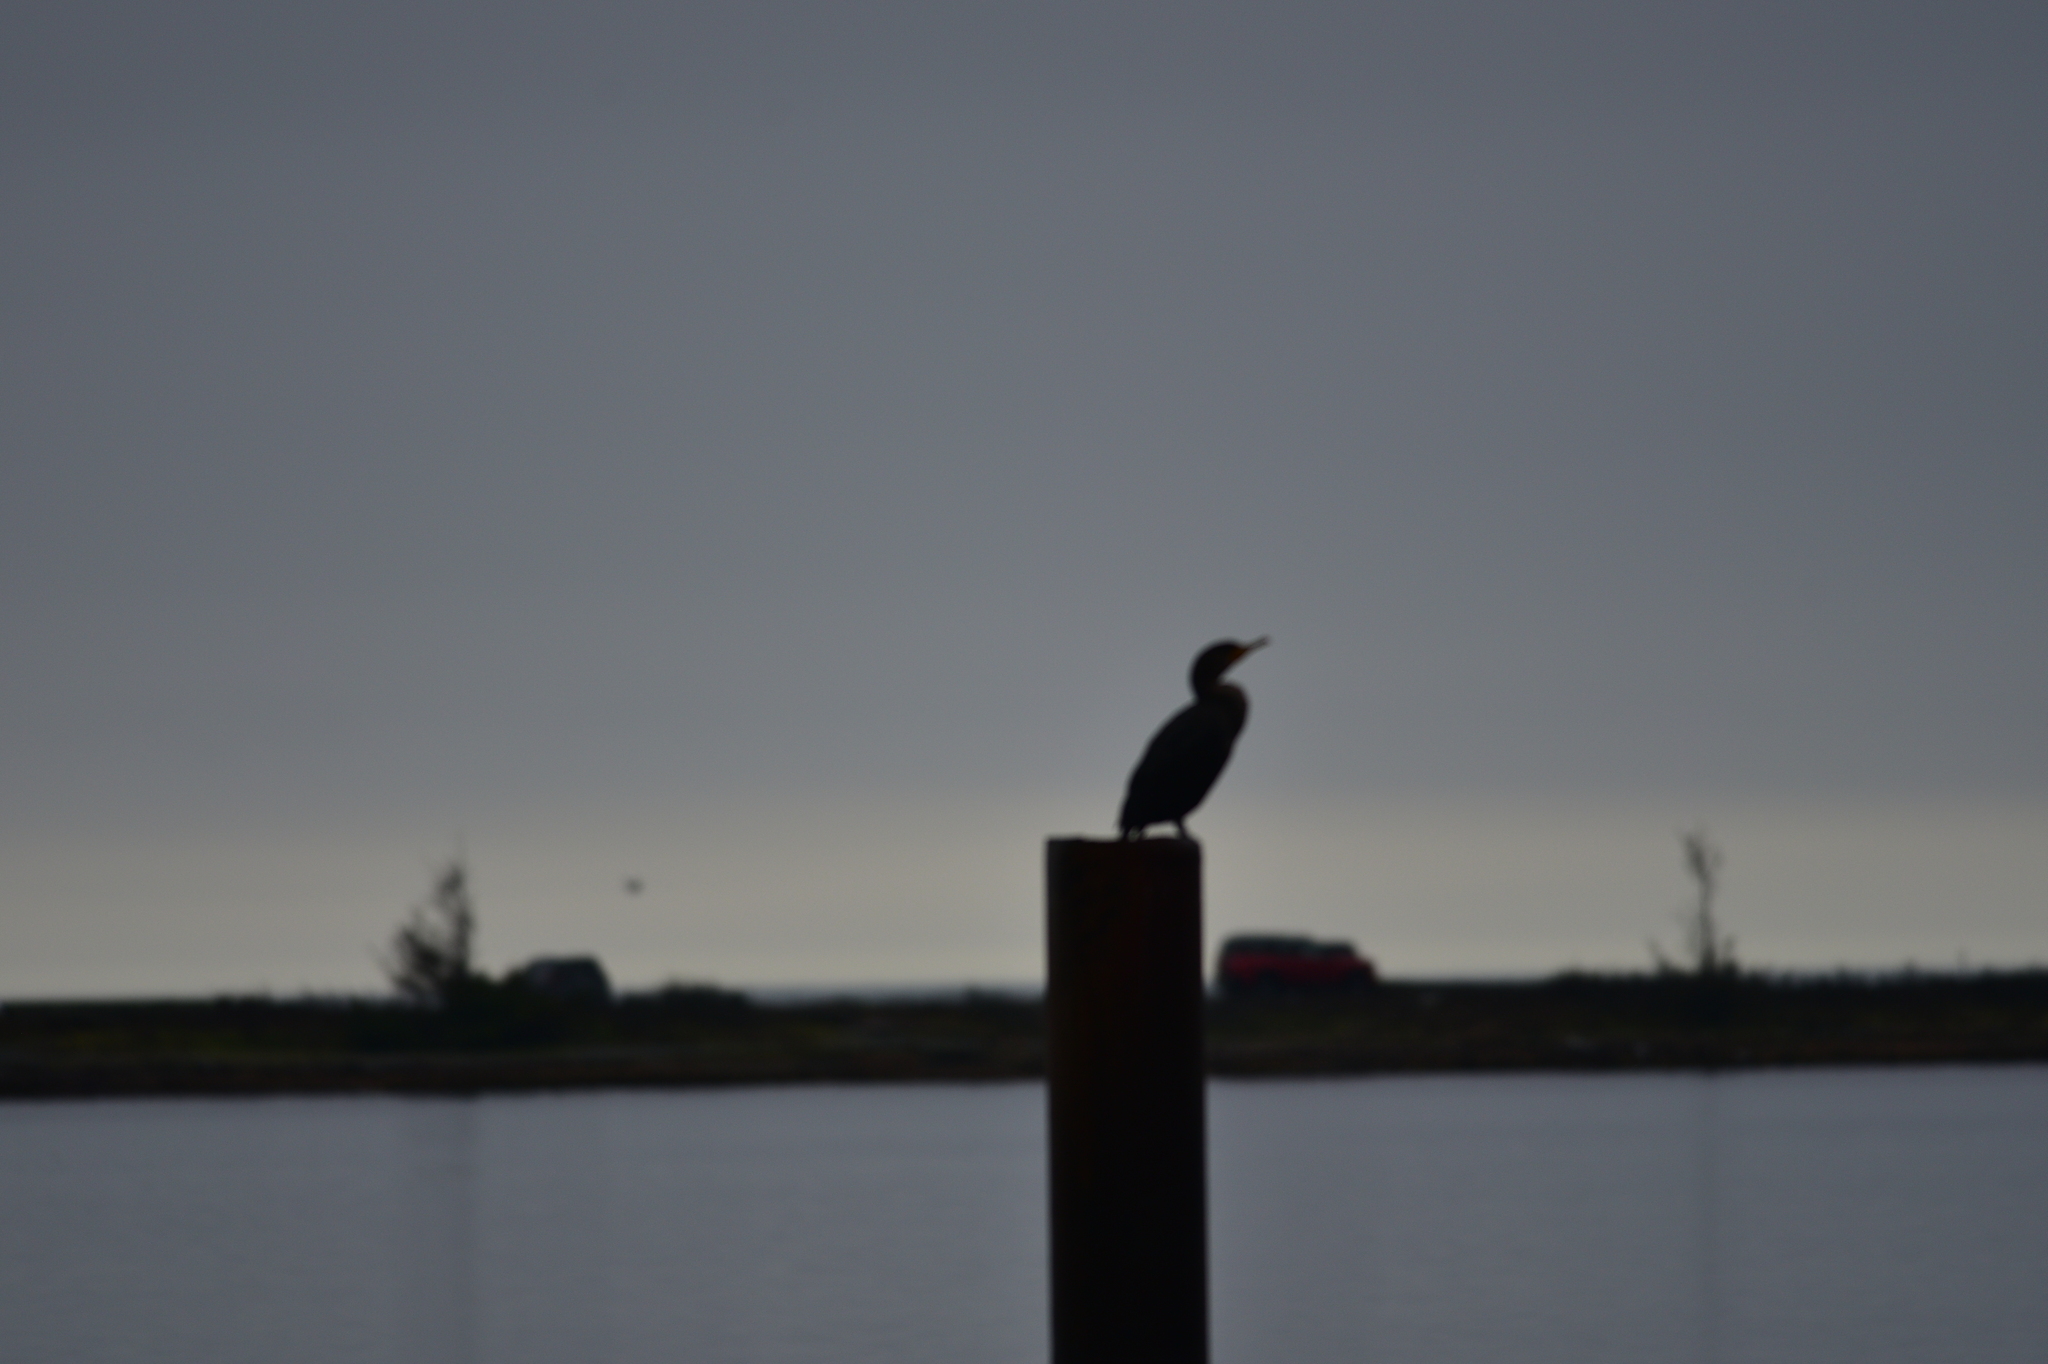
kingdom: Animalia
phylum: Chordata
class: Aves
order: Suliformes
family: Phalacrocoracidae
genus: Phalacrocorax
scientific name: Phalacrocorax auritus
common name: Double-crested cormorant
